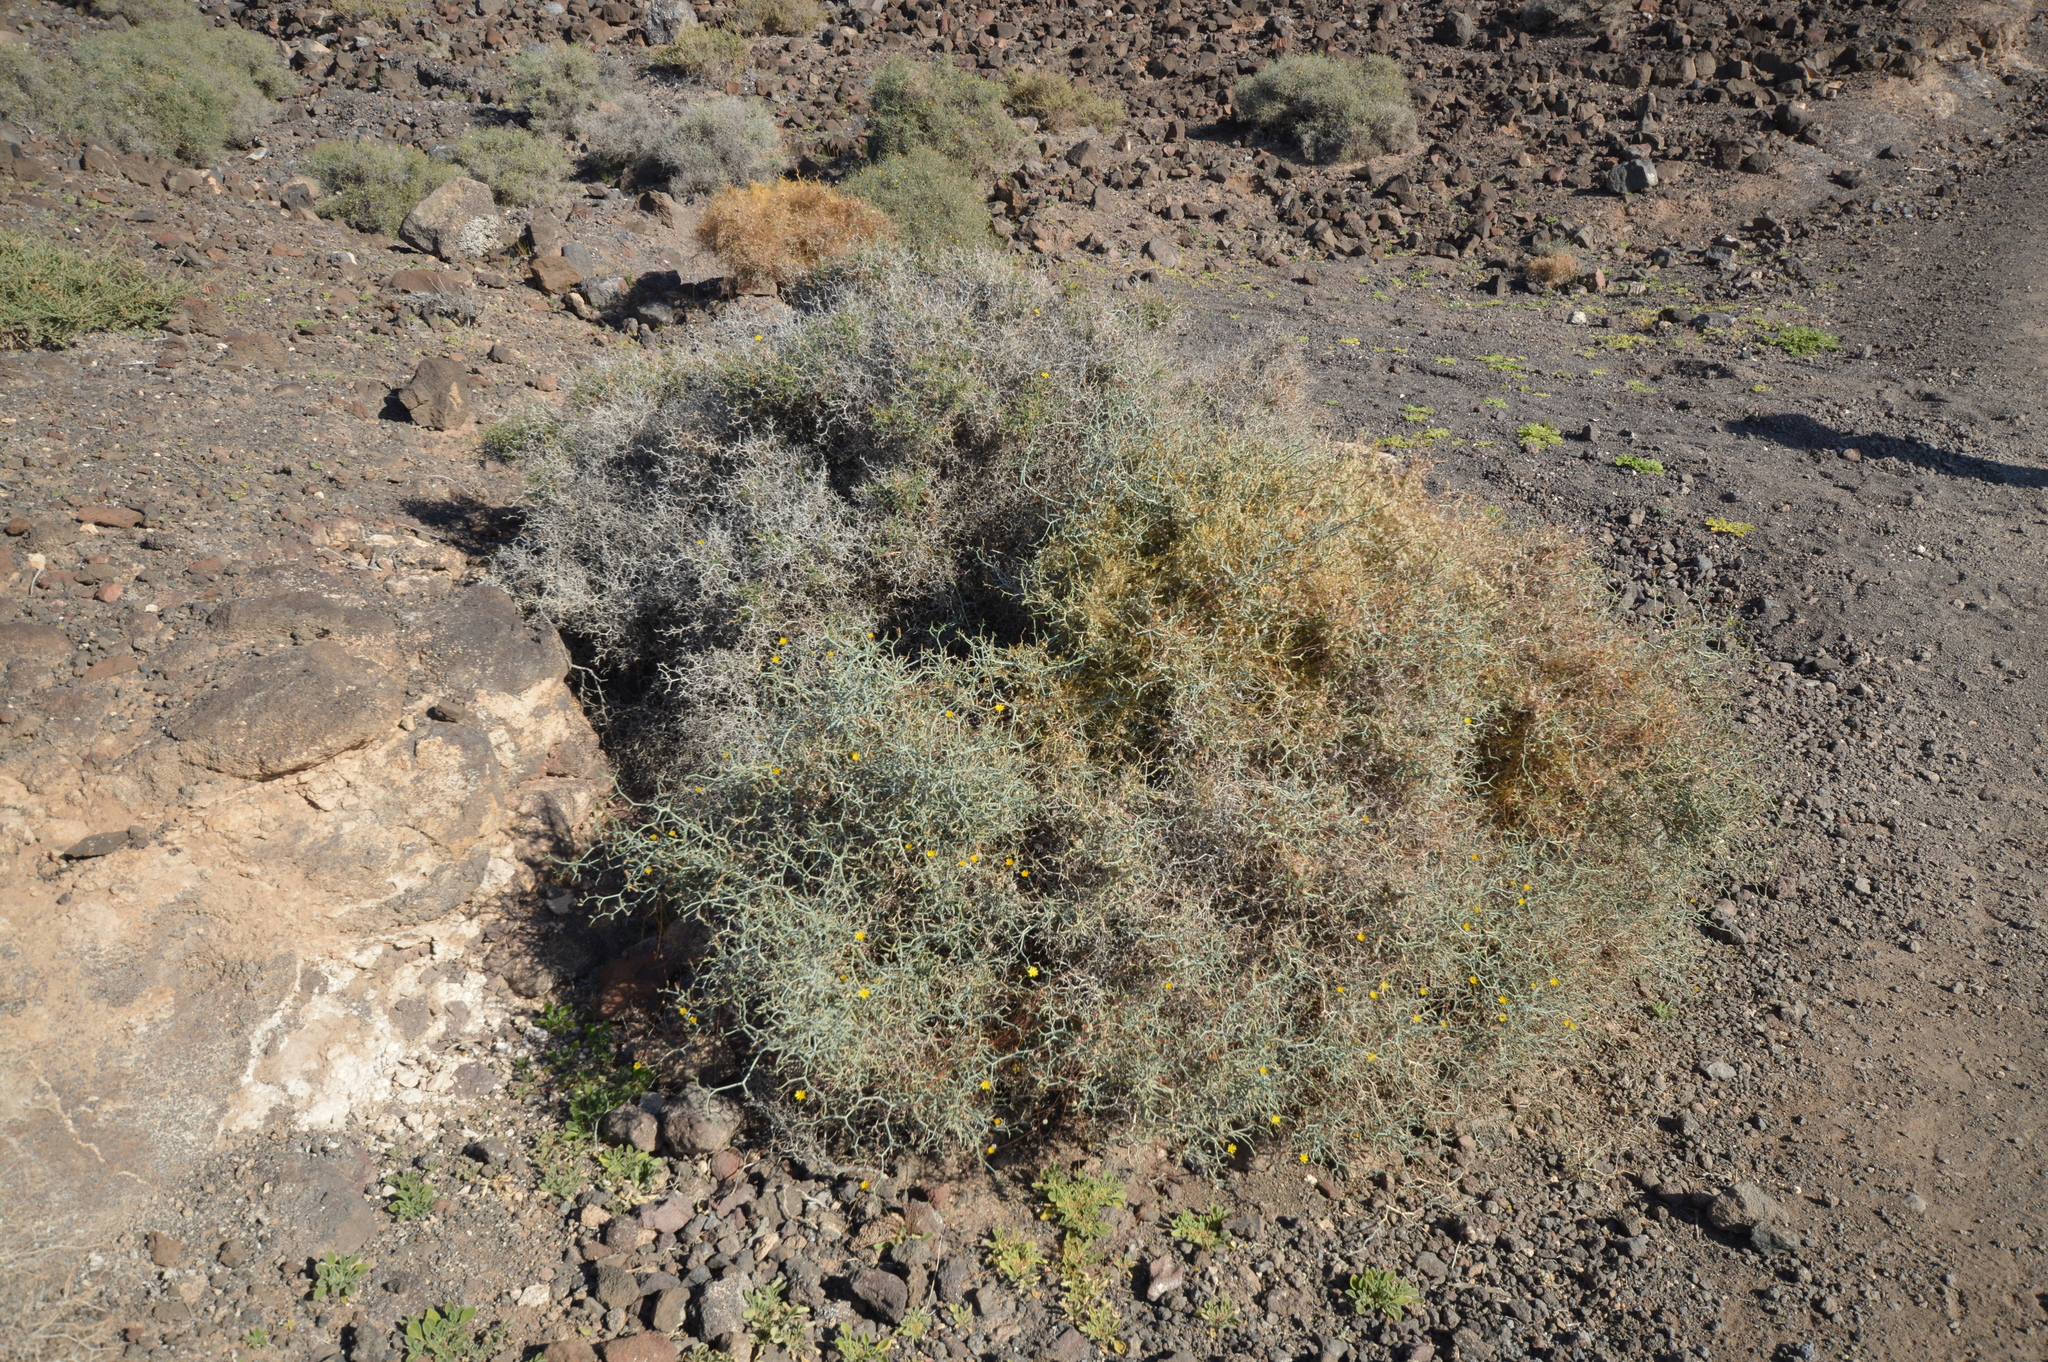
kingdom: Plantae
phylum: Tracheophyta
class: Magnoliopsida
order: Asterales
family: Asteraceae
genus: Launaea
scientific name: Launaea arborescens
